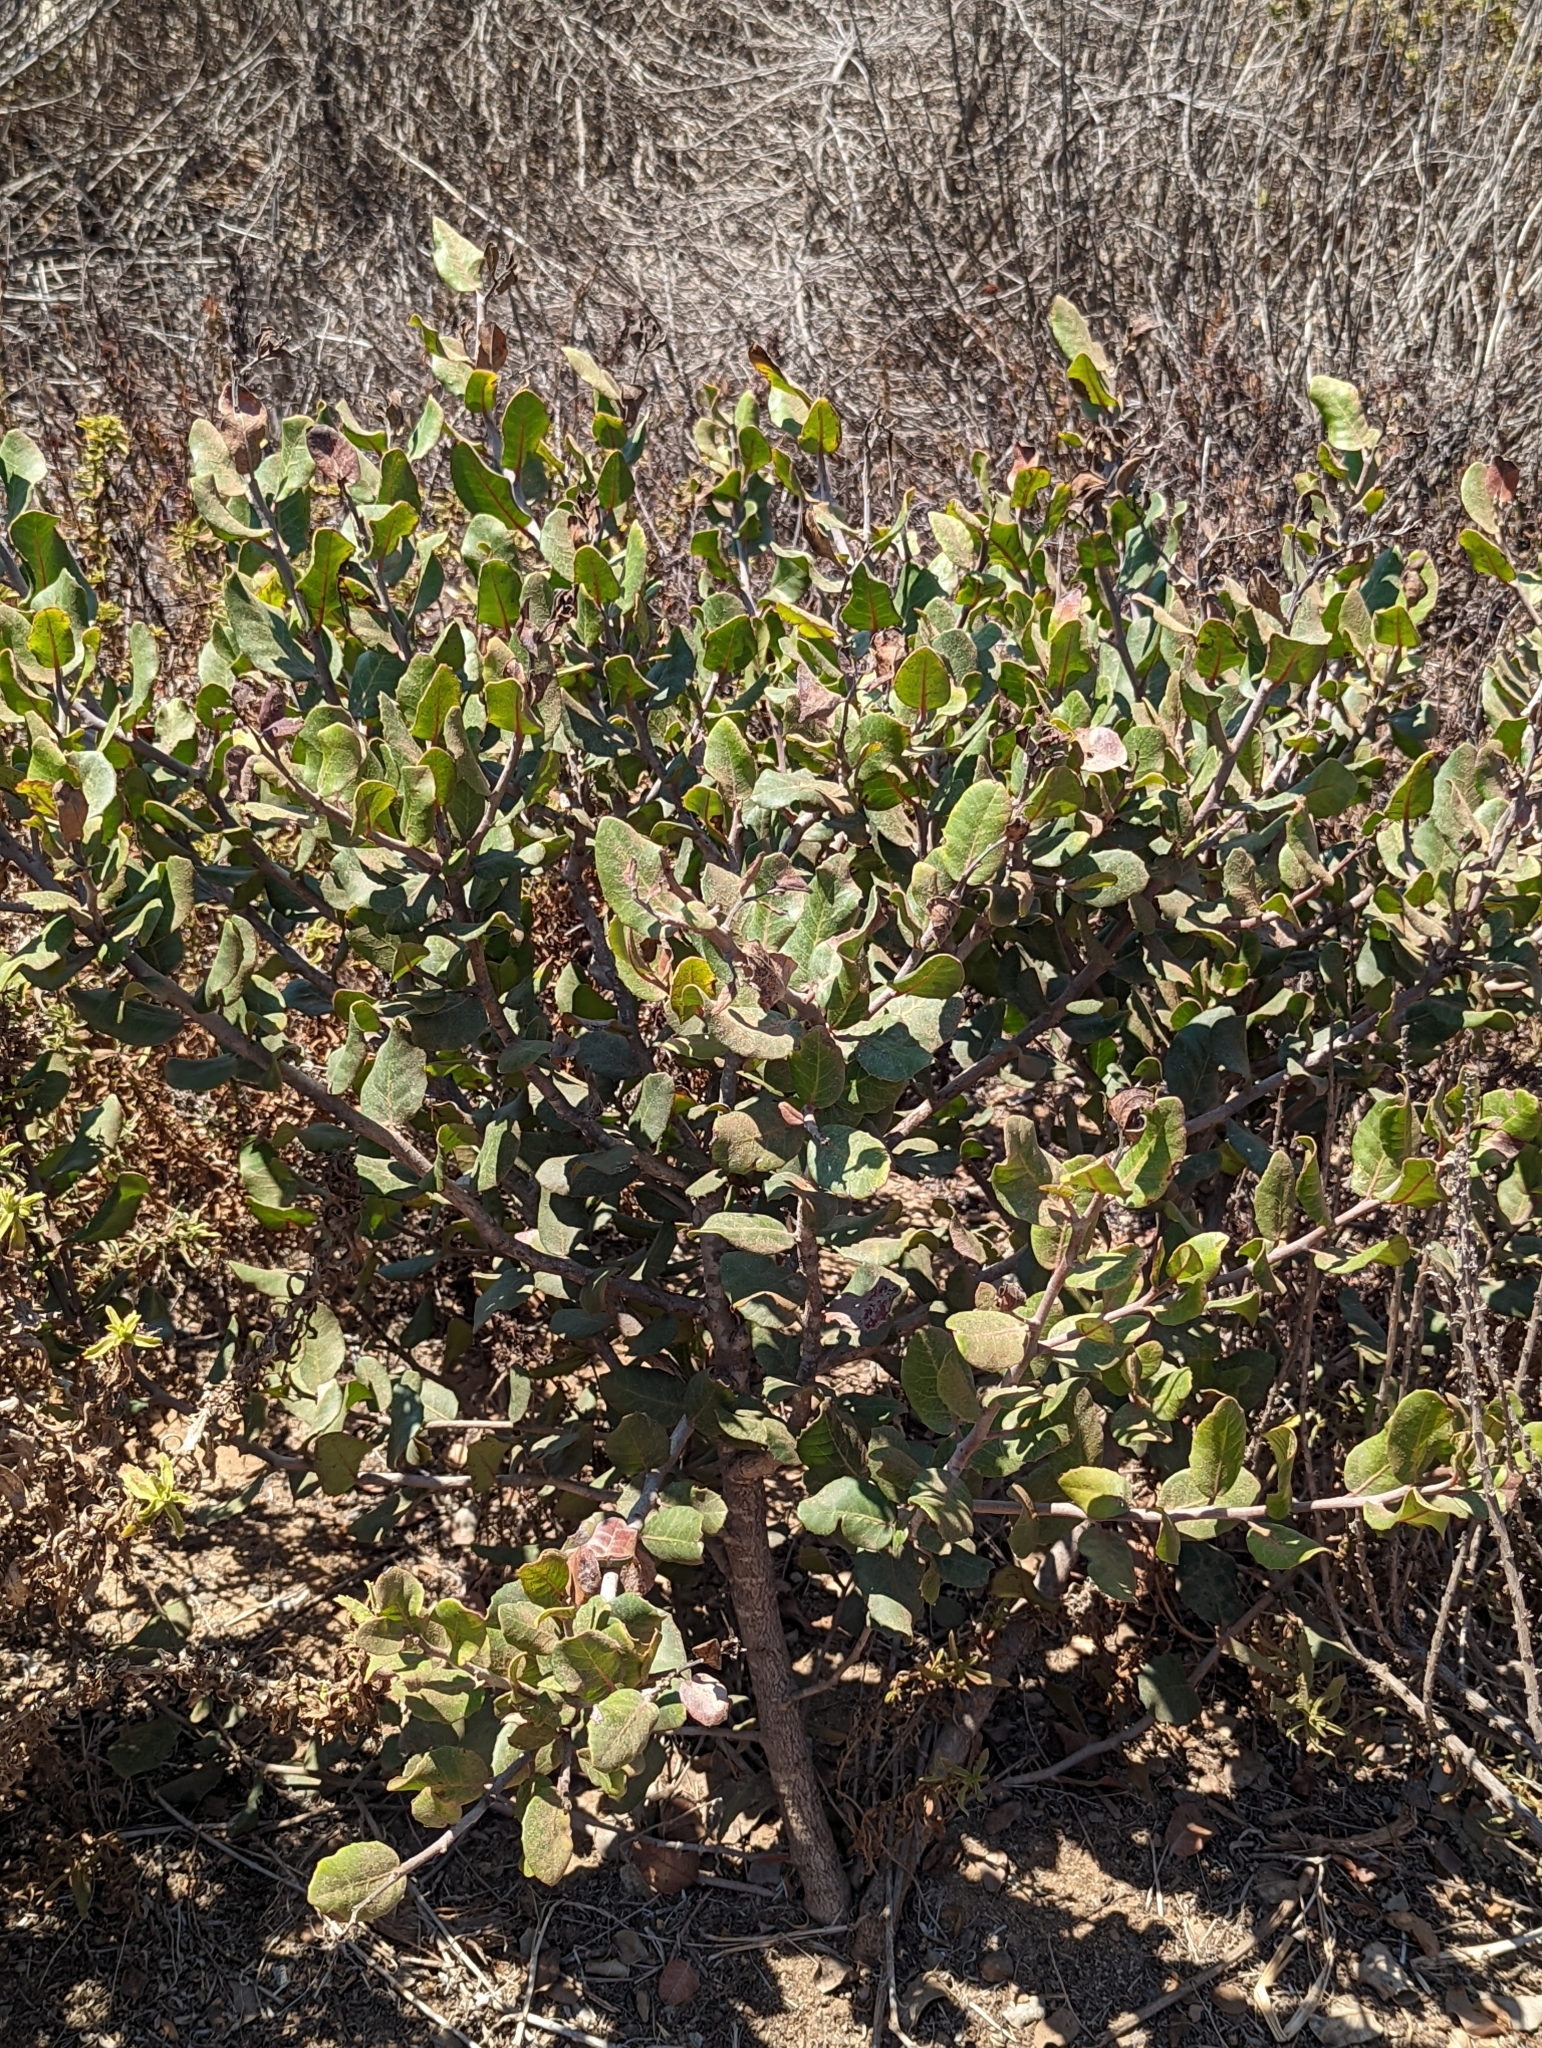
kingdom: Plantae
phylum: Tracheophyta
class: Magnoliopsida
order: Sapindales
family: Anacardiaceae
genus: Rhus
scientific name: Rhus integrifolia
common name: Lemonade sumac
